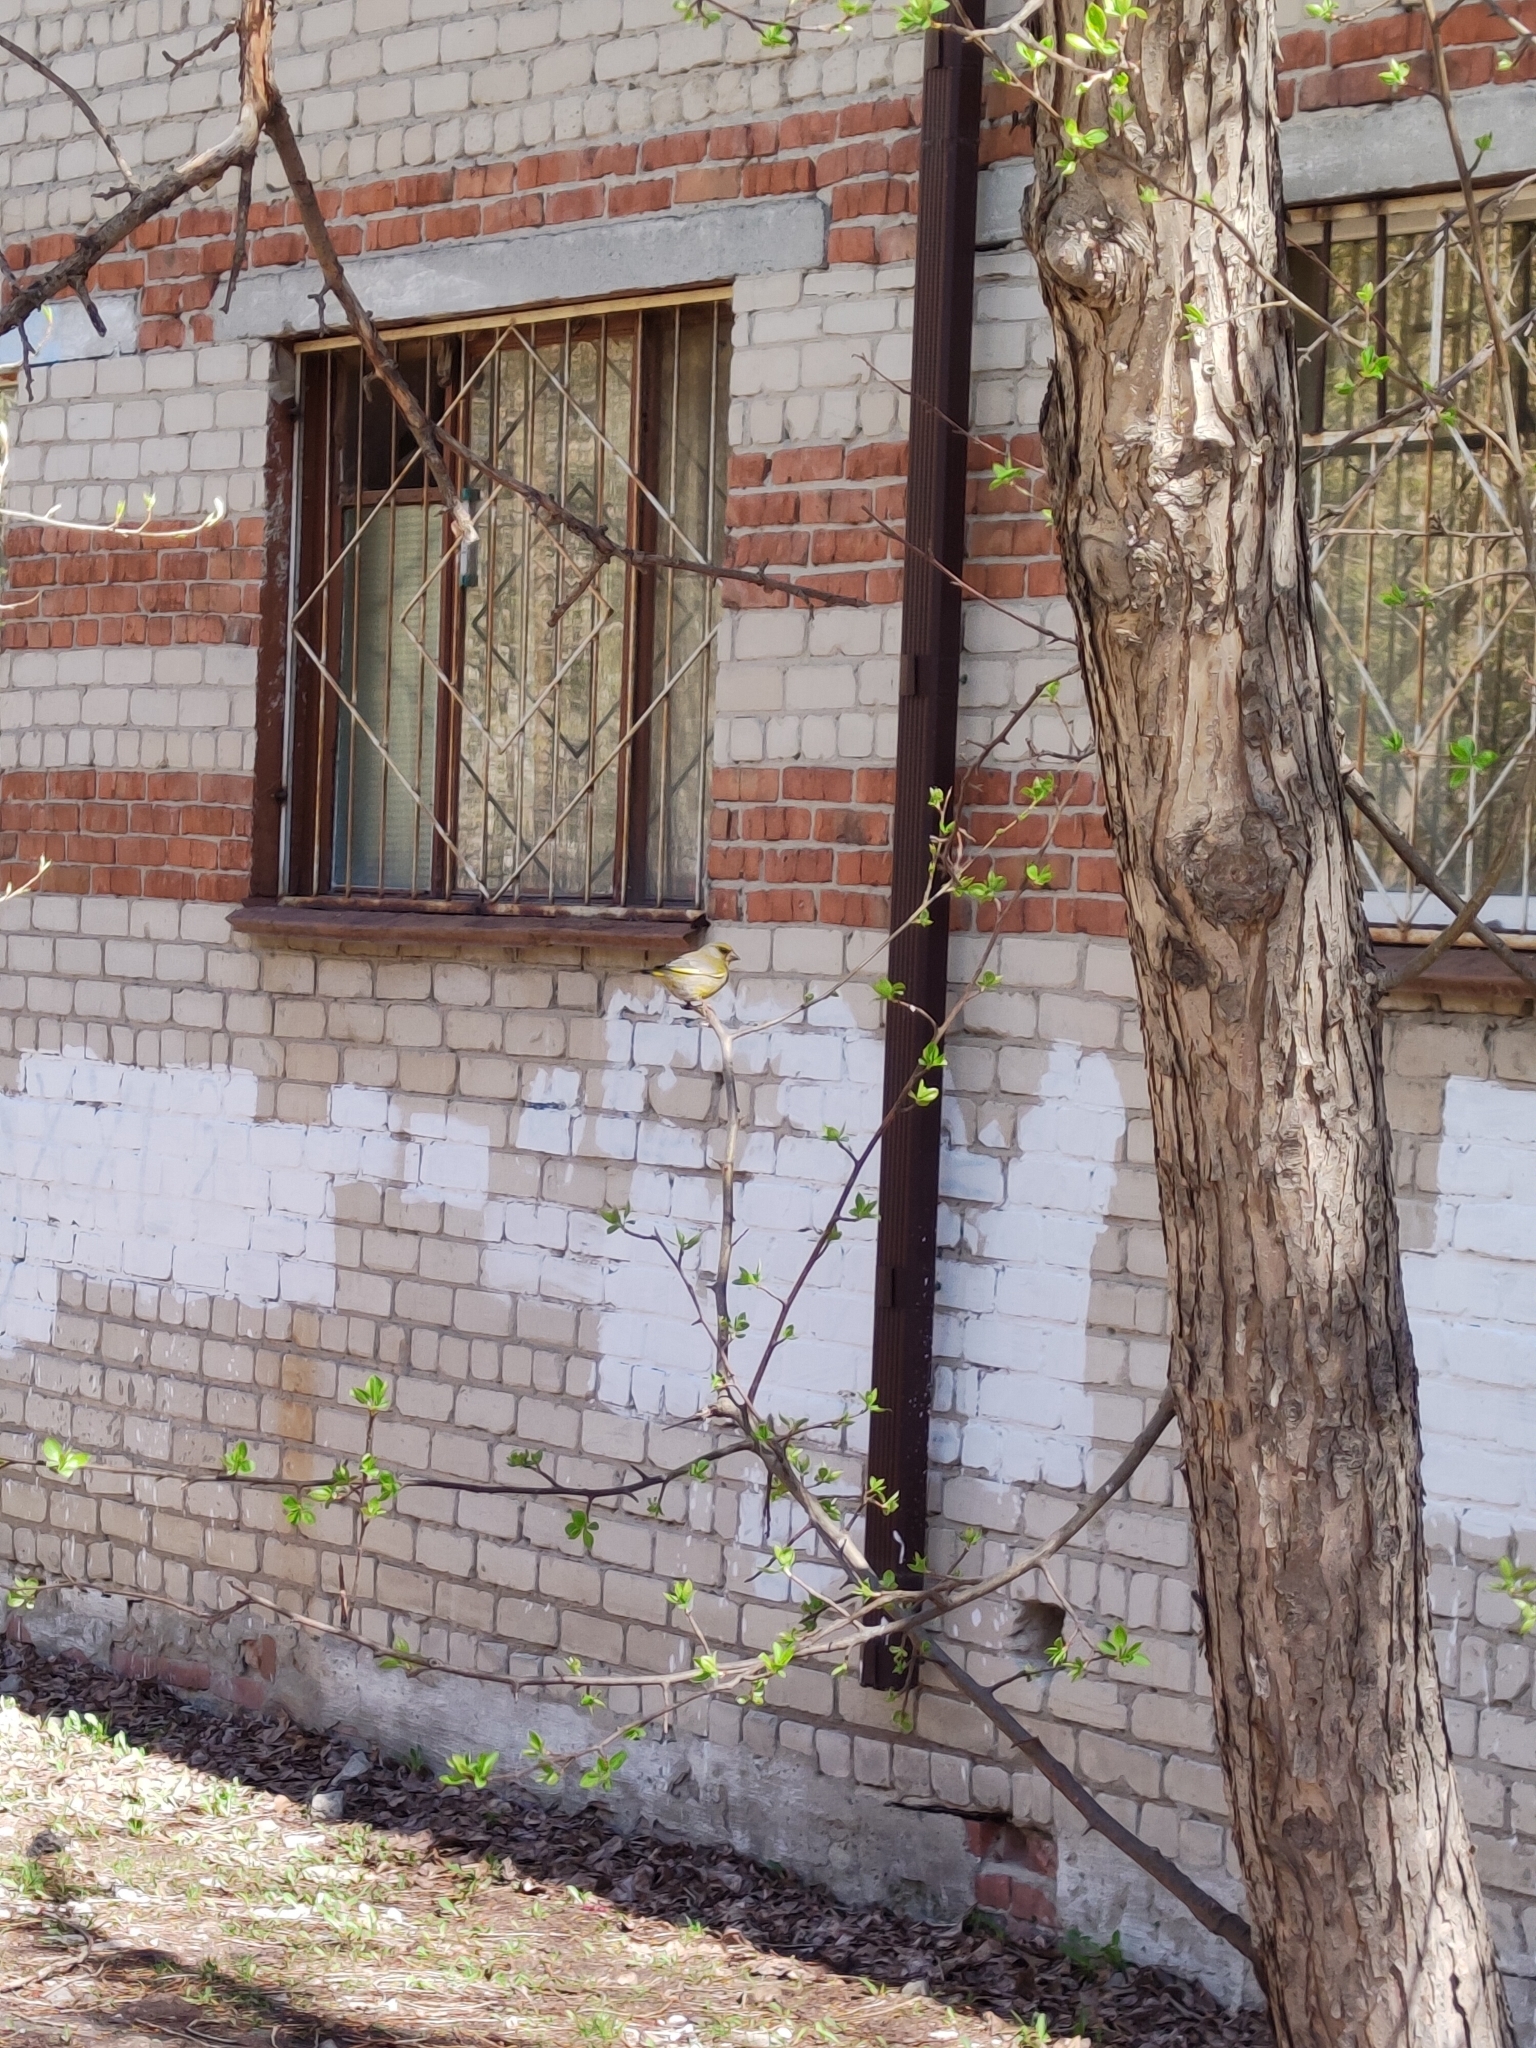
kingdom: Plantae
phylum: Tracheophyta
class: Liliopsida
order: Poales
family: Poaceae
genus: Chloris
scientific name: Chloris chloris
